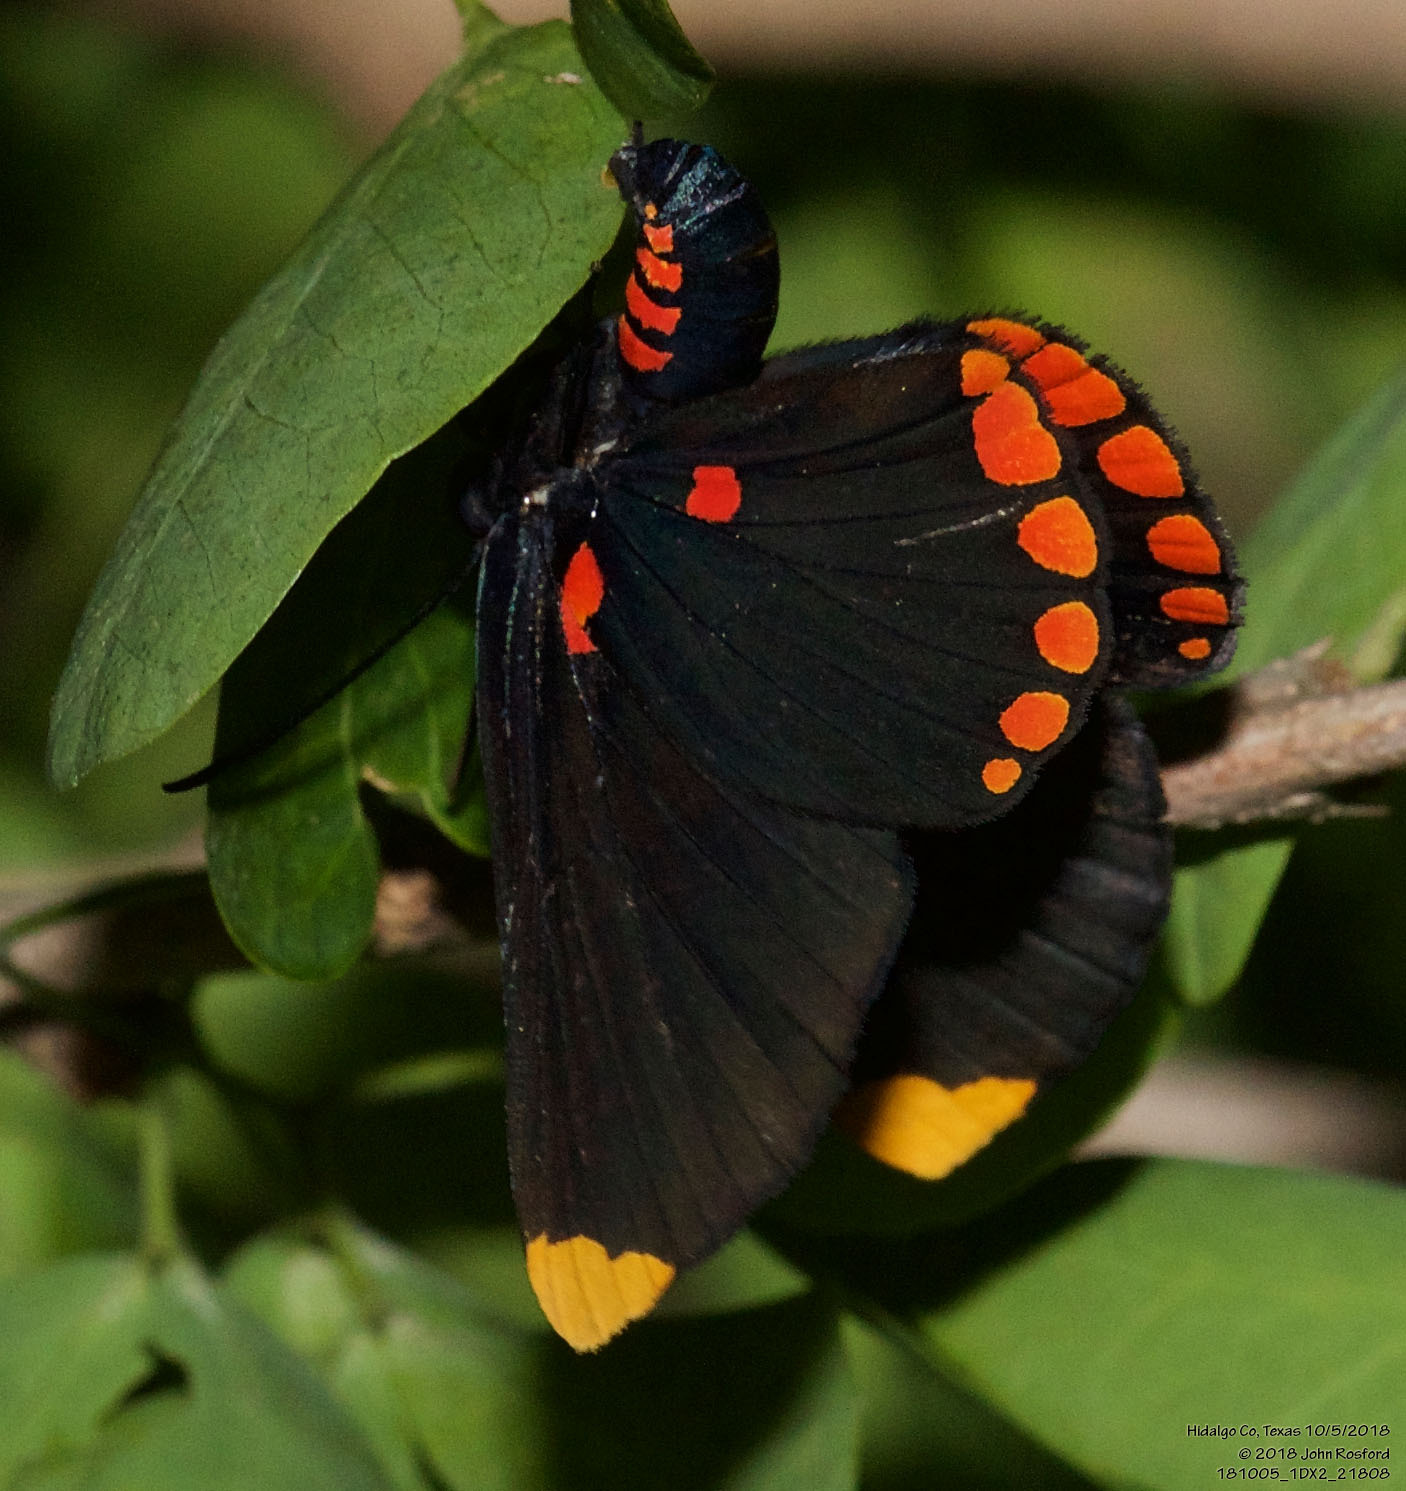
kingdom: Animalia
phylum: Arthropoda
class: Insecta
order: Lepidoptera
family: Lycaenidae
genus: Melanis
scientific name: Melanis pixe
